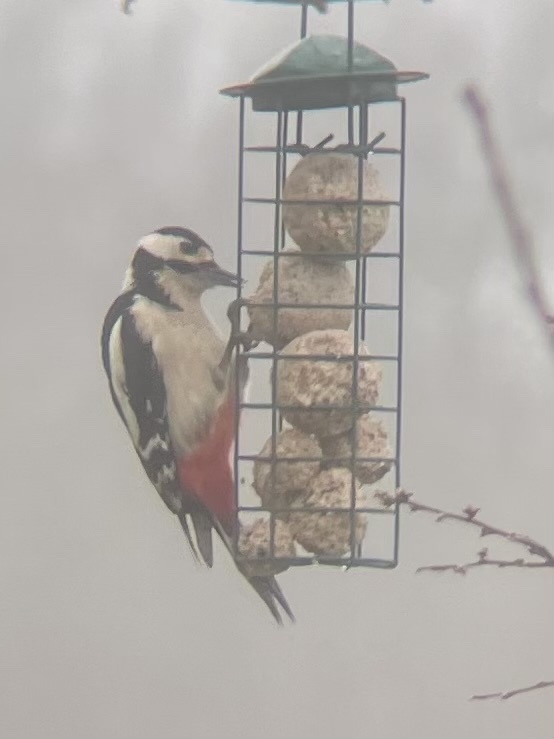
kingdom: Animalia
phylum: Chordata
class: Aves
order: Piciformes
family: Picidae
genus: Dendrocopos
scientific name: Dendrocopos major
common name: Great spotted woodpecker
